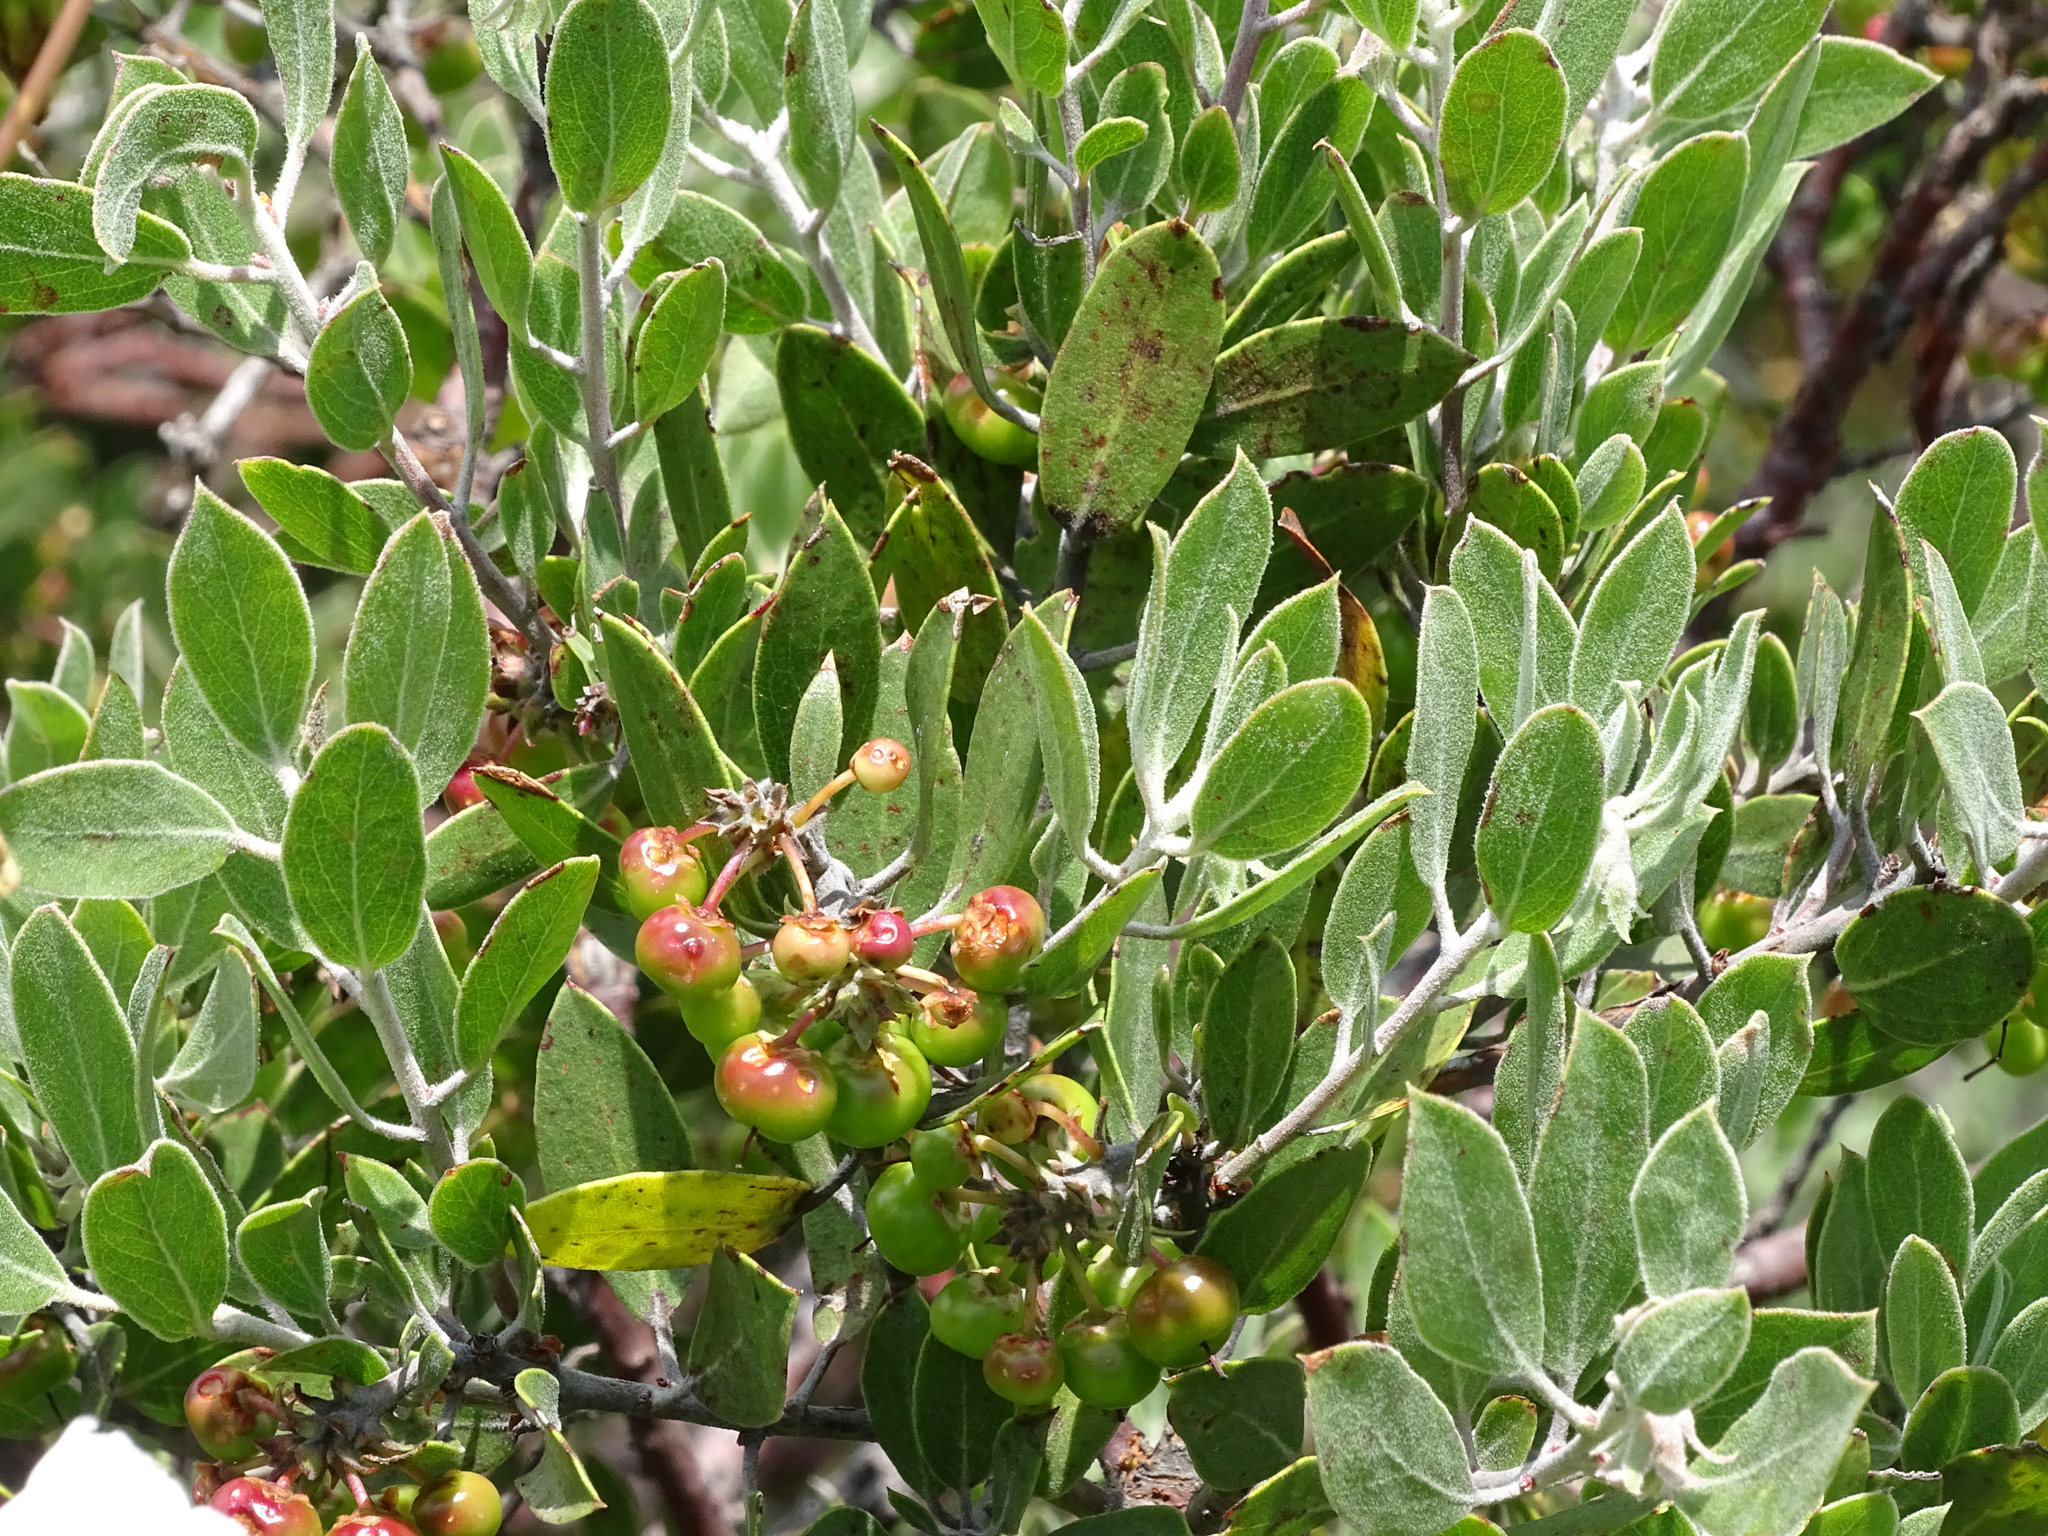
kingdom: Plantae
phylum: Tracheophyta
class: Magnoliopsida
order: Ericales
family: Ericaceae
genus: Arctostaphylos
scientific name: Arctostaphylos pungens
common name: Mexican manzanita
